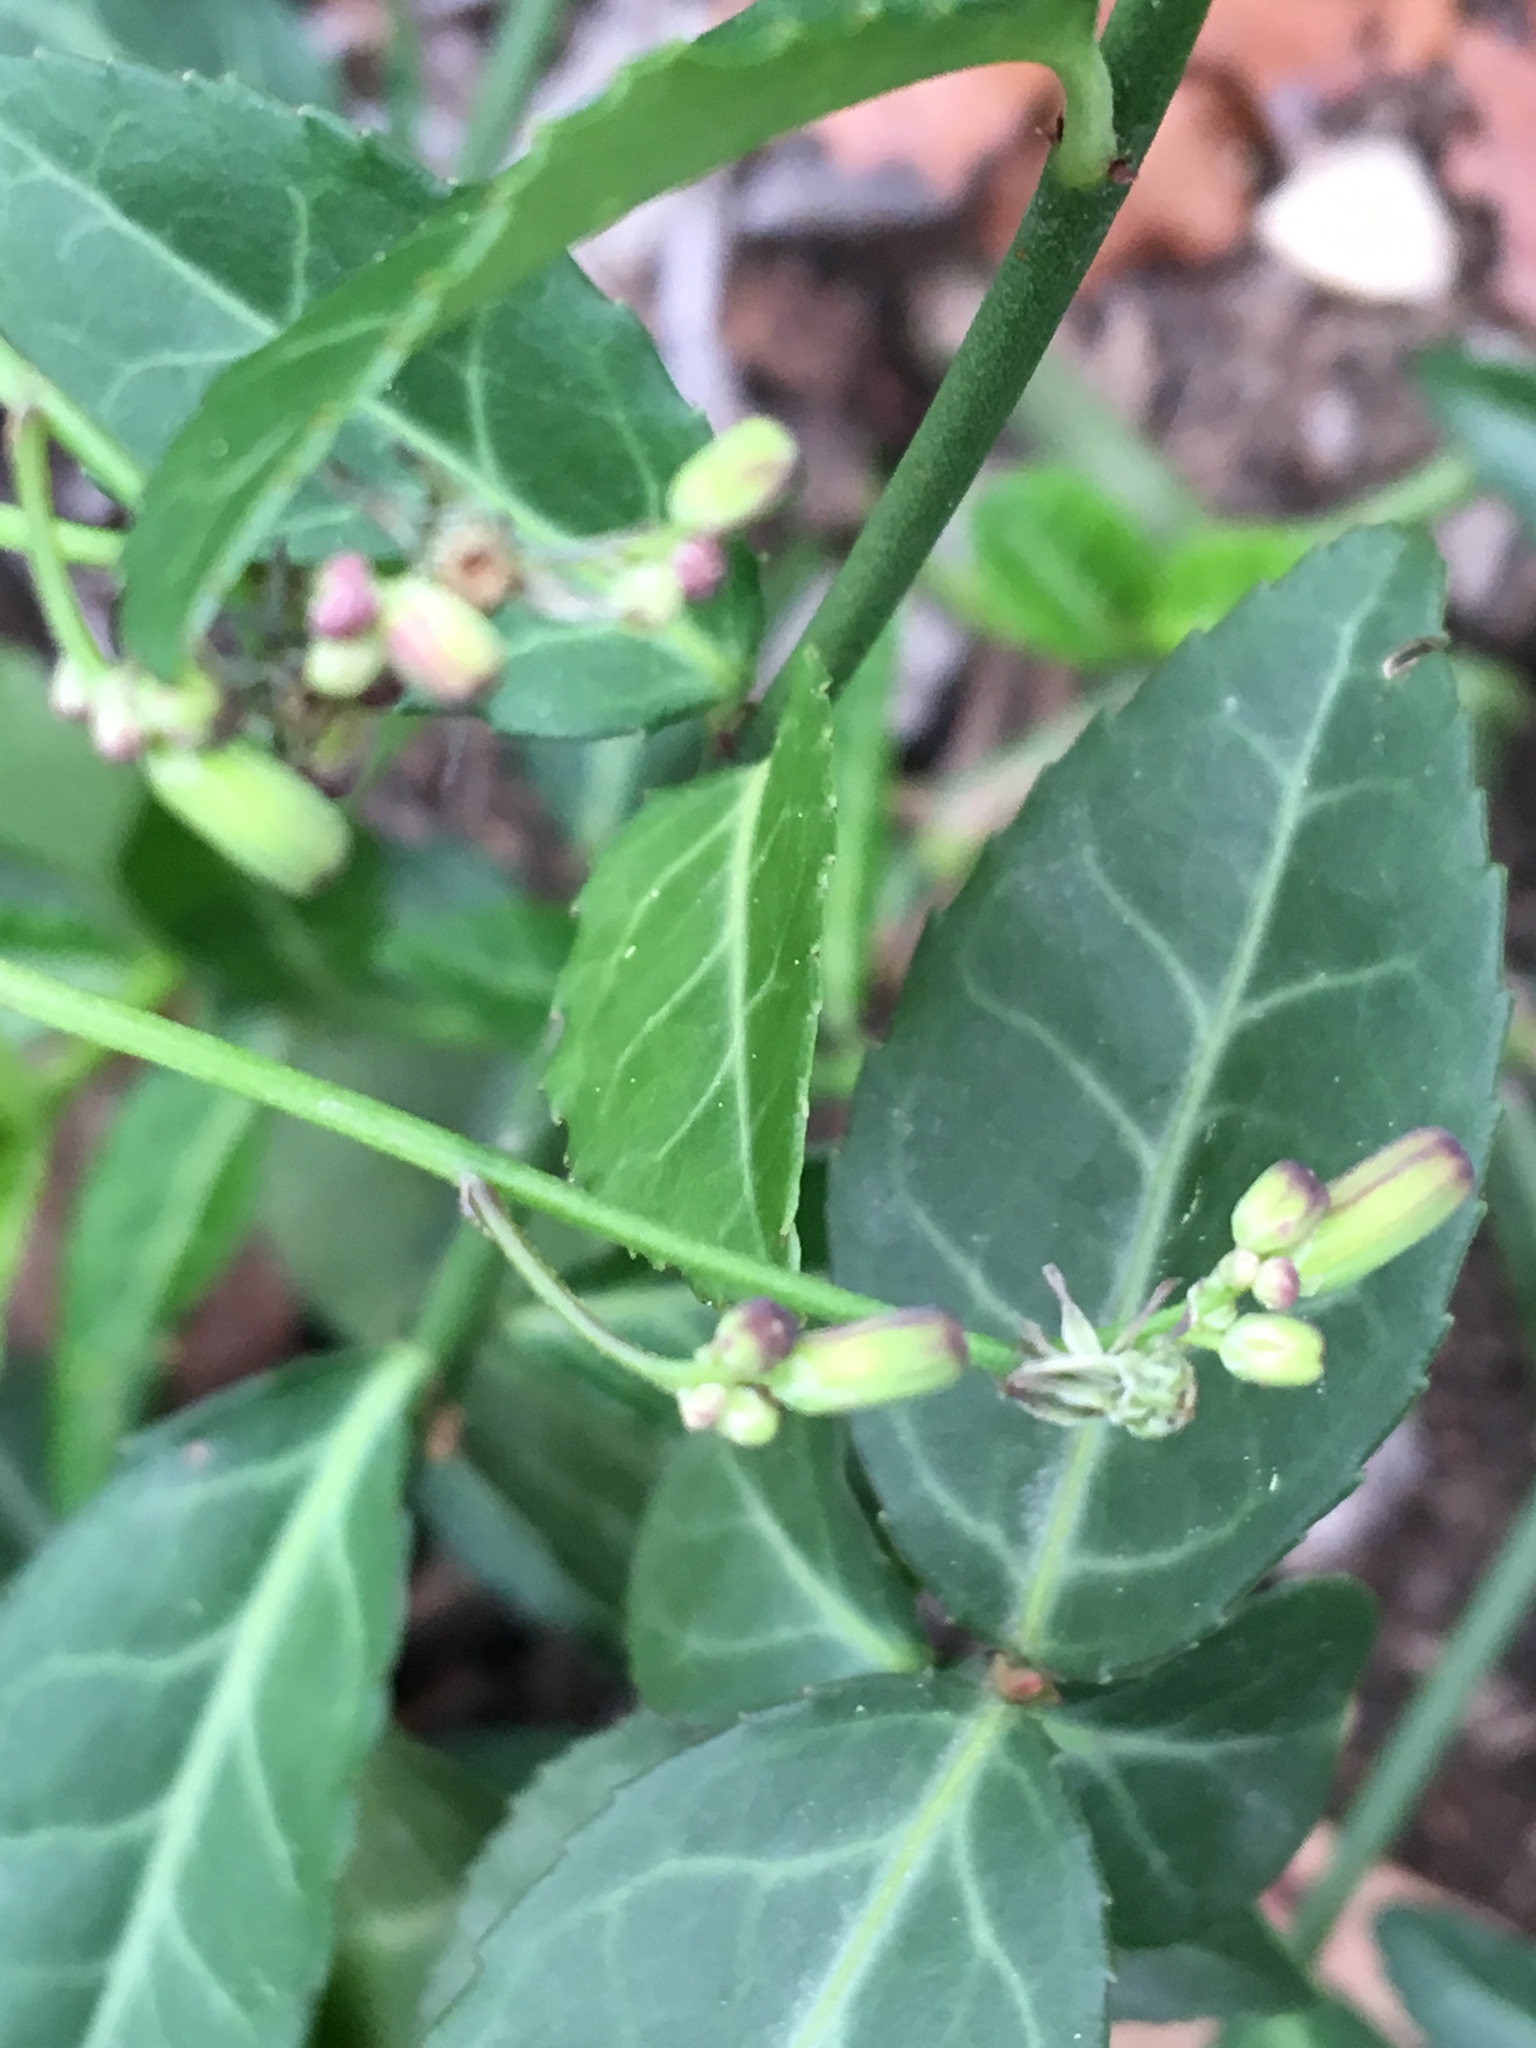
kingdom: Plantae
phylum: Tracheophyta
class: Magnoliopsida
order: Asterales
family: Asteraceae
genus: Youngia
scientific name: Youngia japonica
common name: Oriental false hawksbeard
